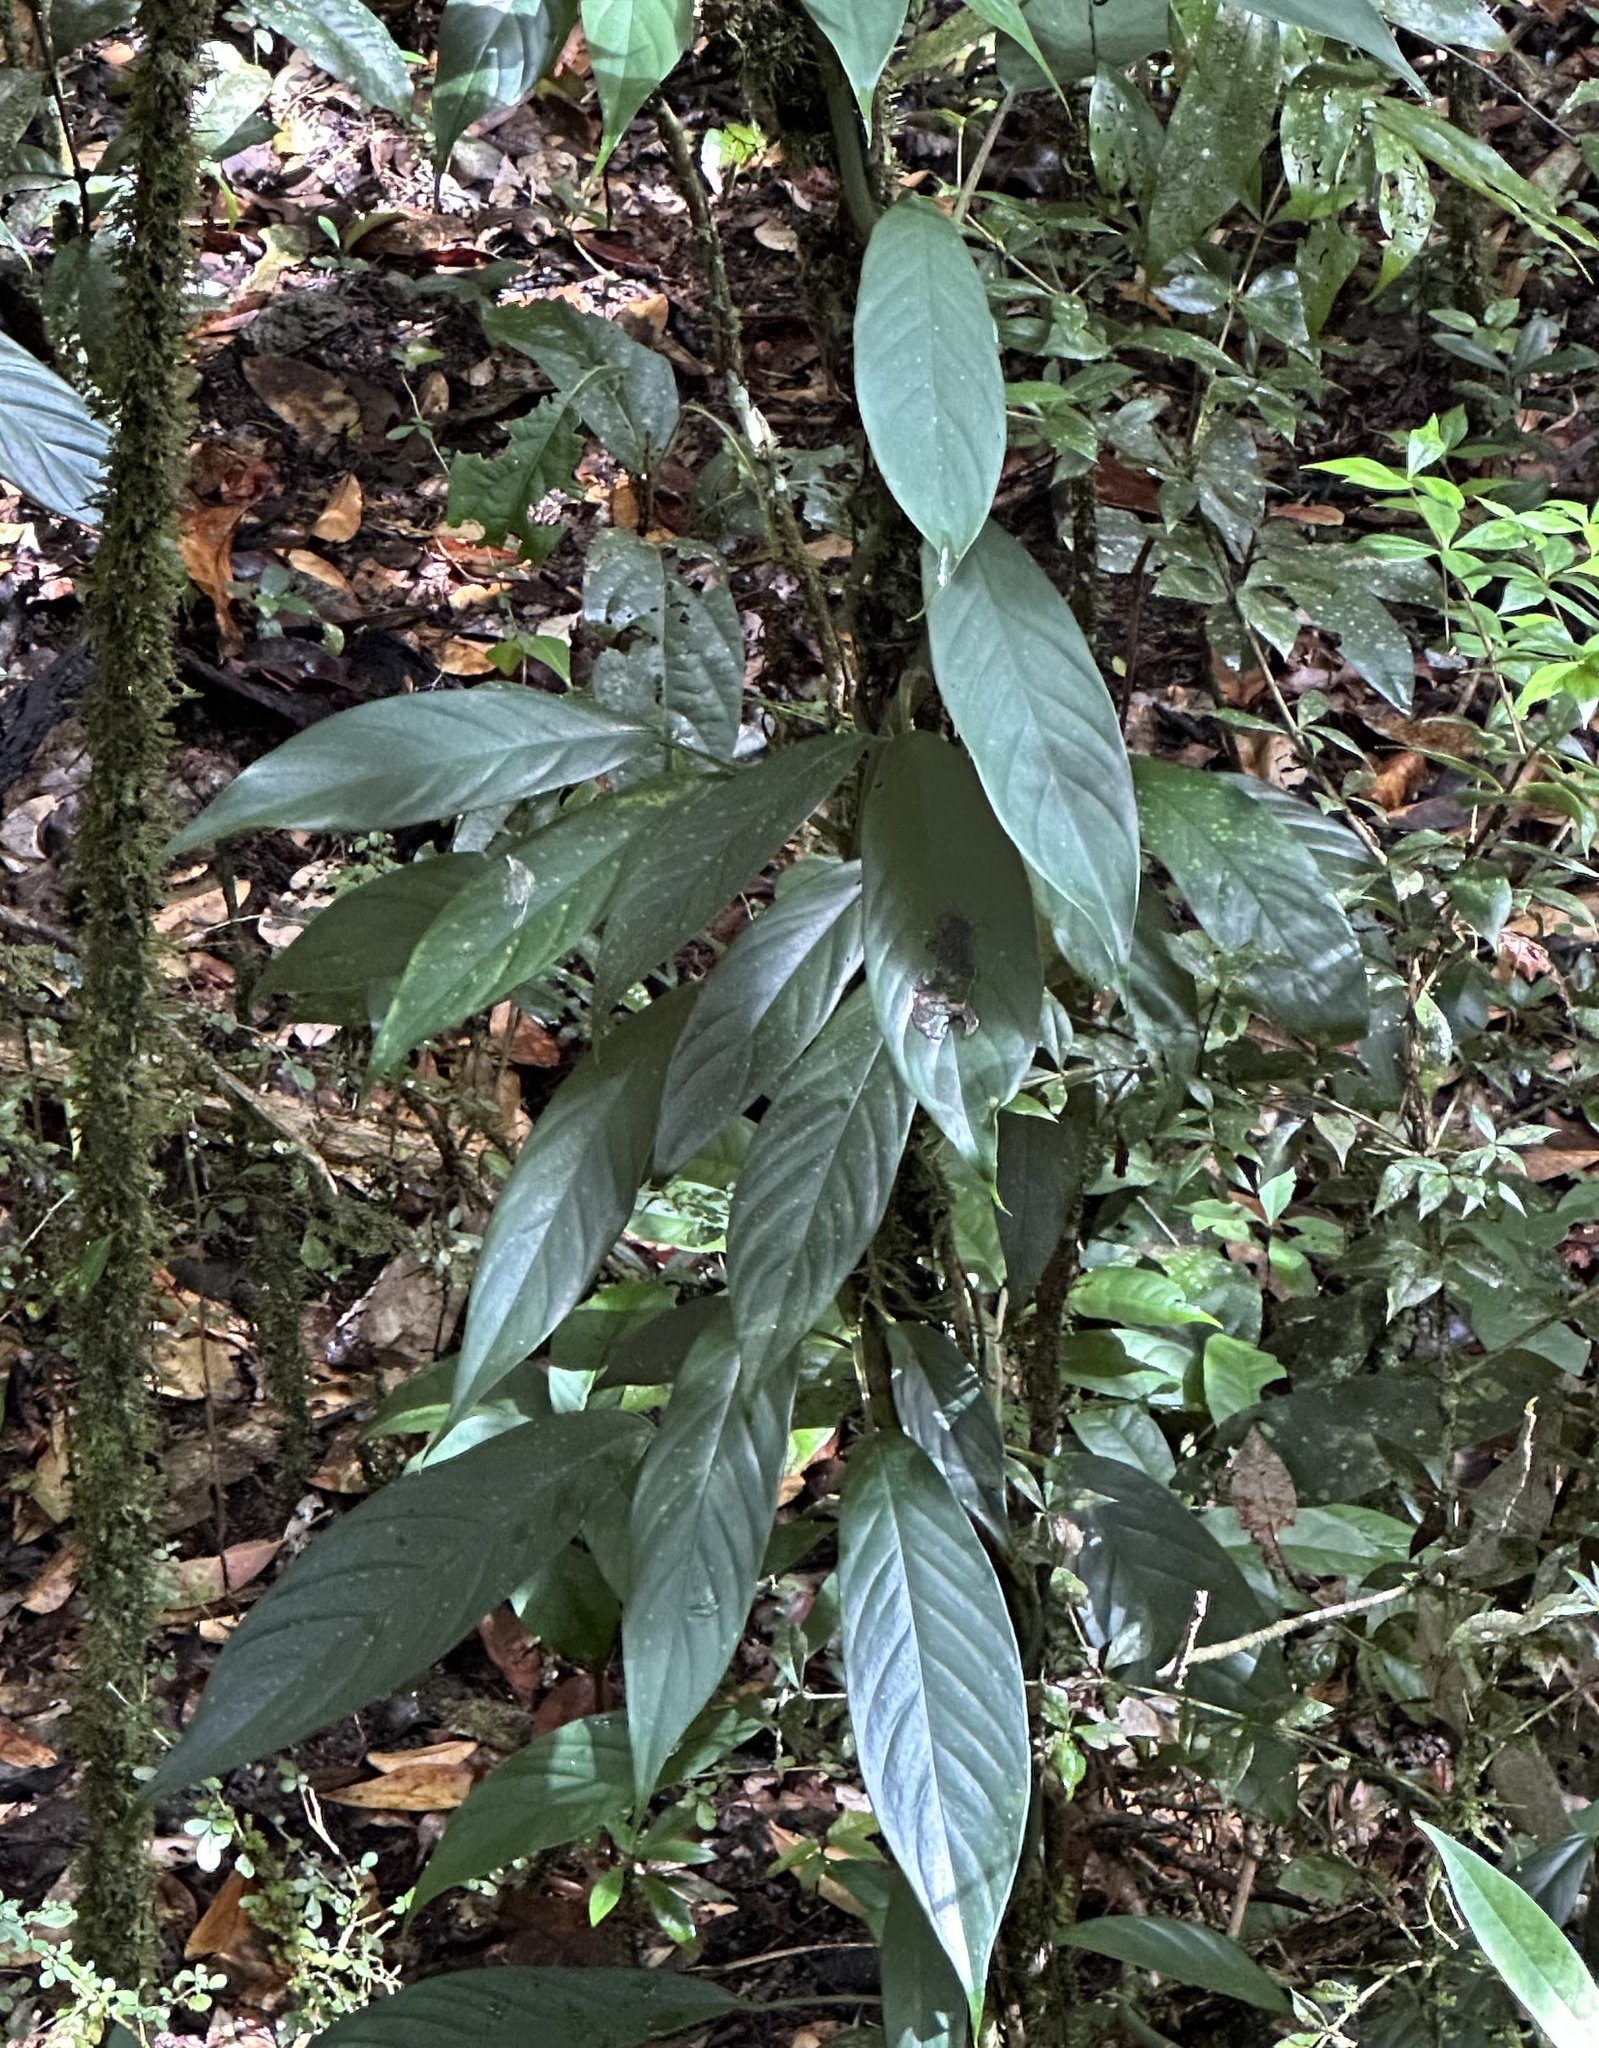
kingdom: Plantae
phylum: Tracheophyta
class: Liliopsida
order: Alismatales
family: Araceae
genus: Rhaphidophora
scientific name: Rhaphidophora petrieana
